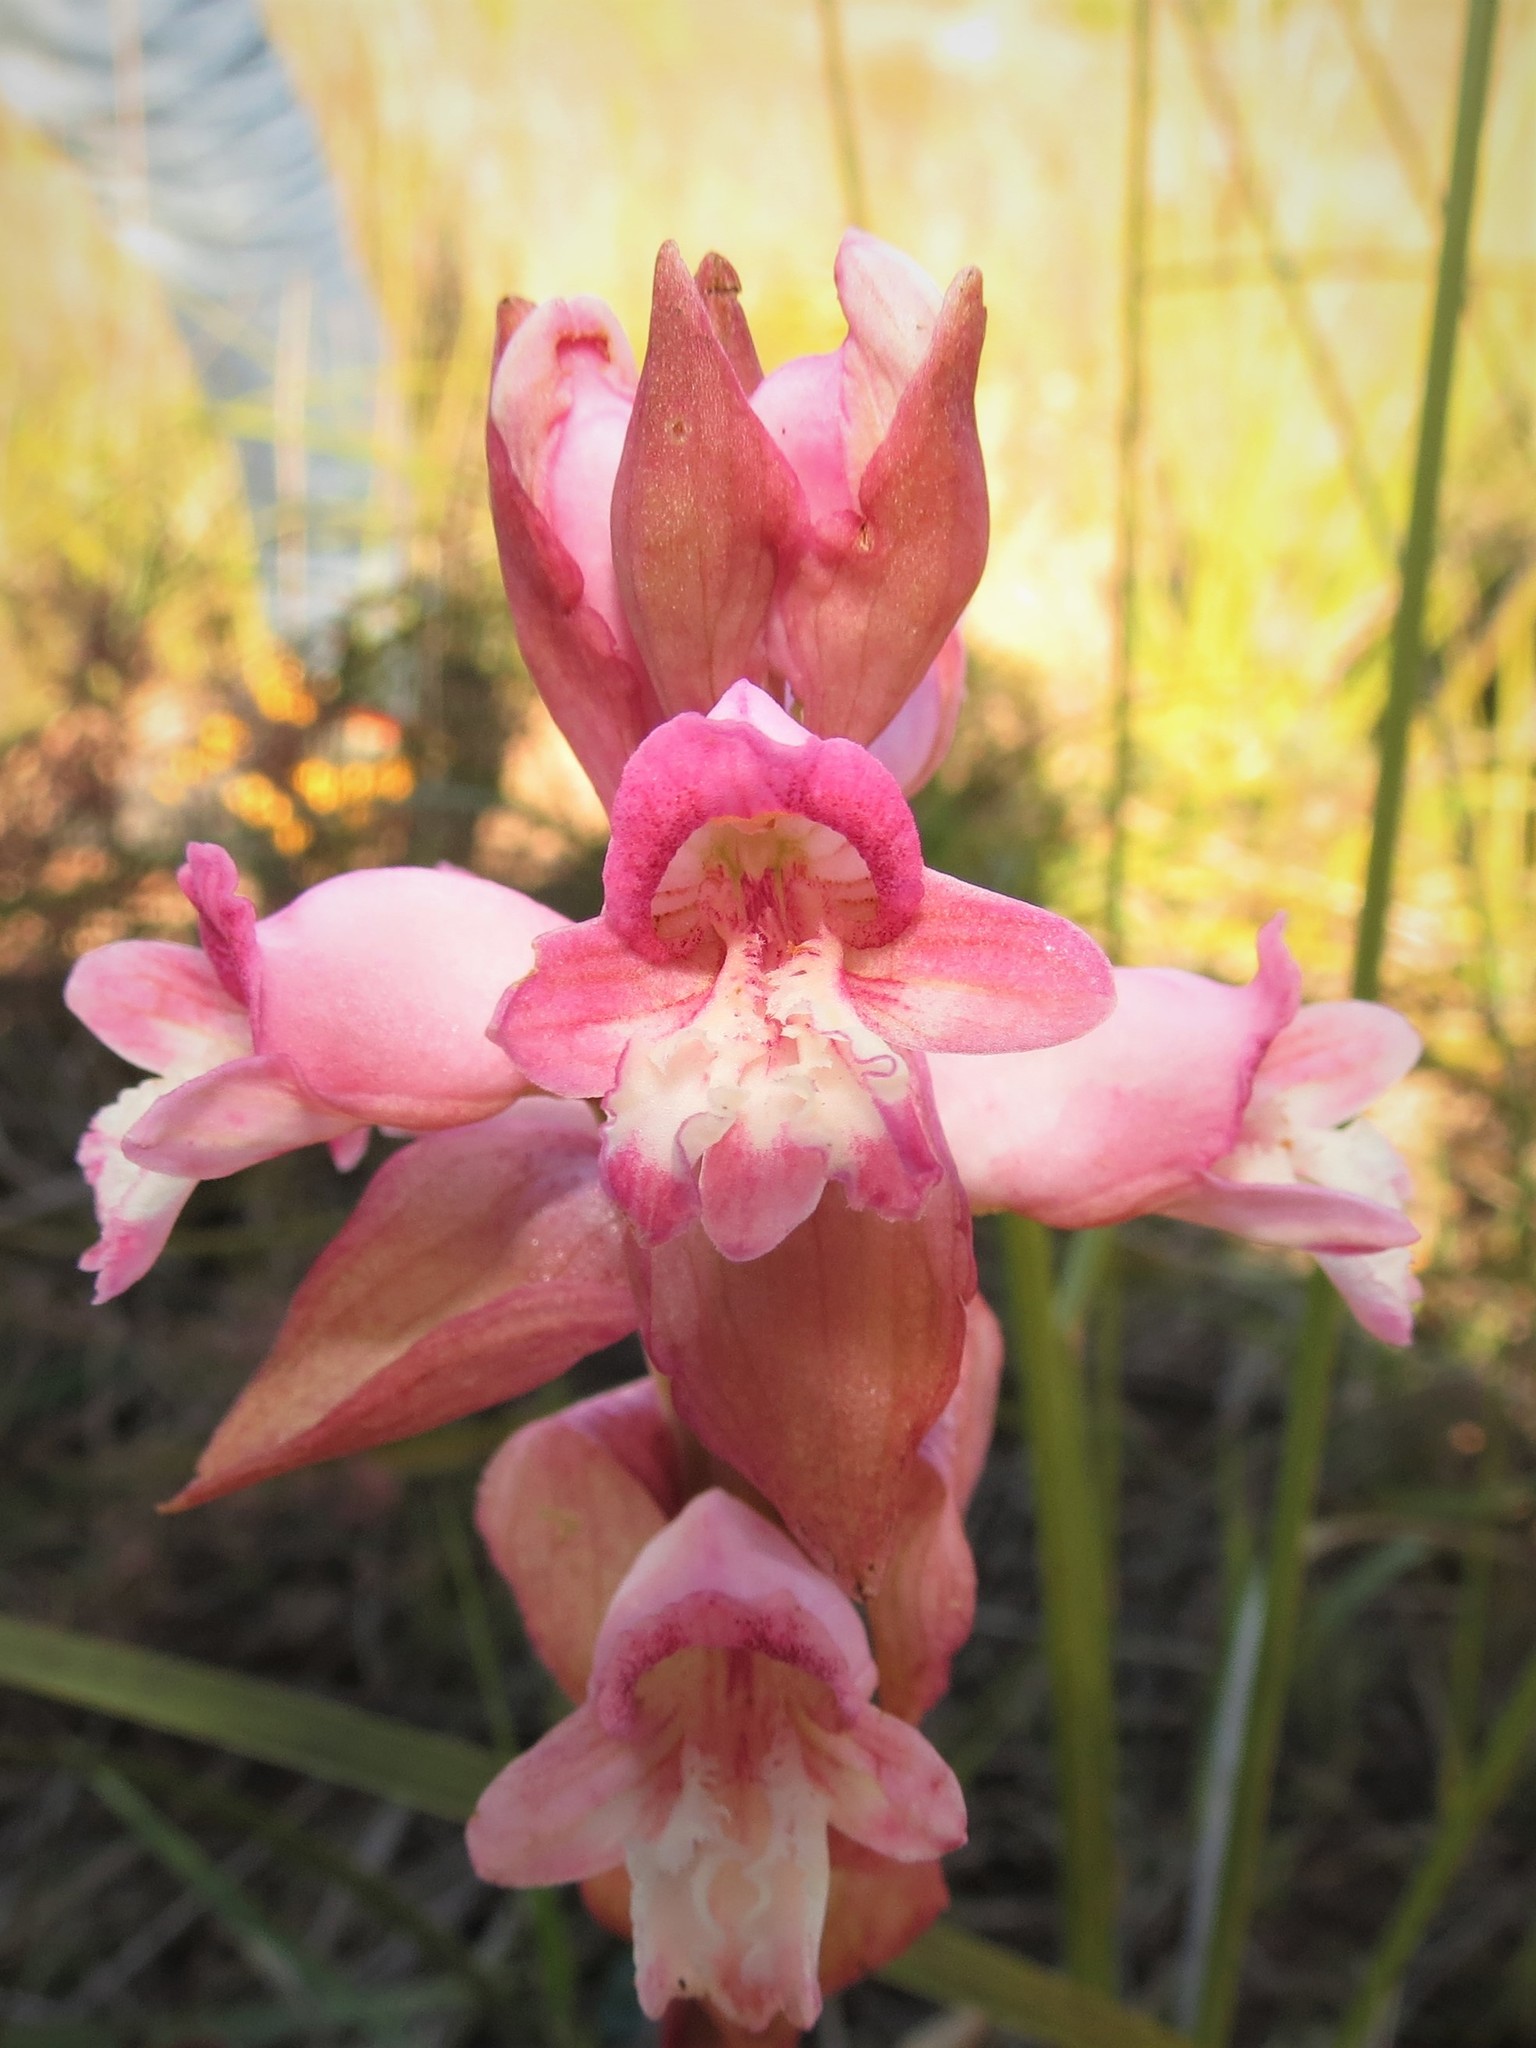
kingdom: Plantae
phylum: Tracheophyta
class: Liliopsida
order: Asparagales
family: Orchidaceae
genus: Satyrium
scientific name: Satyrium muticum
